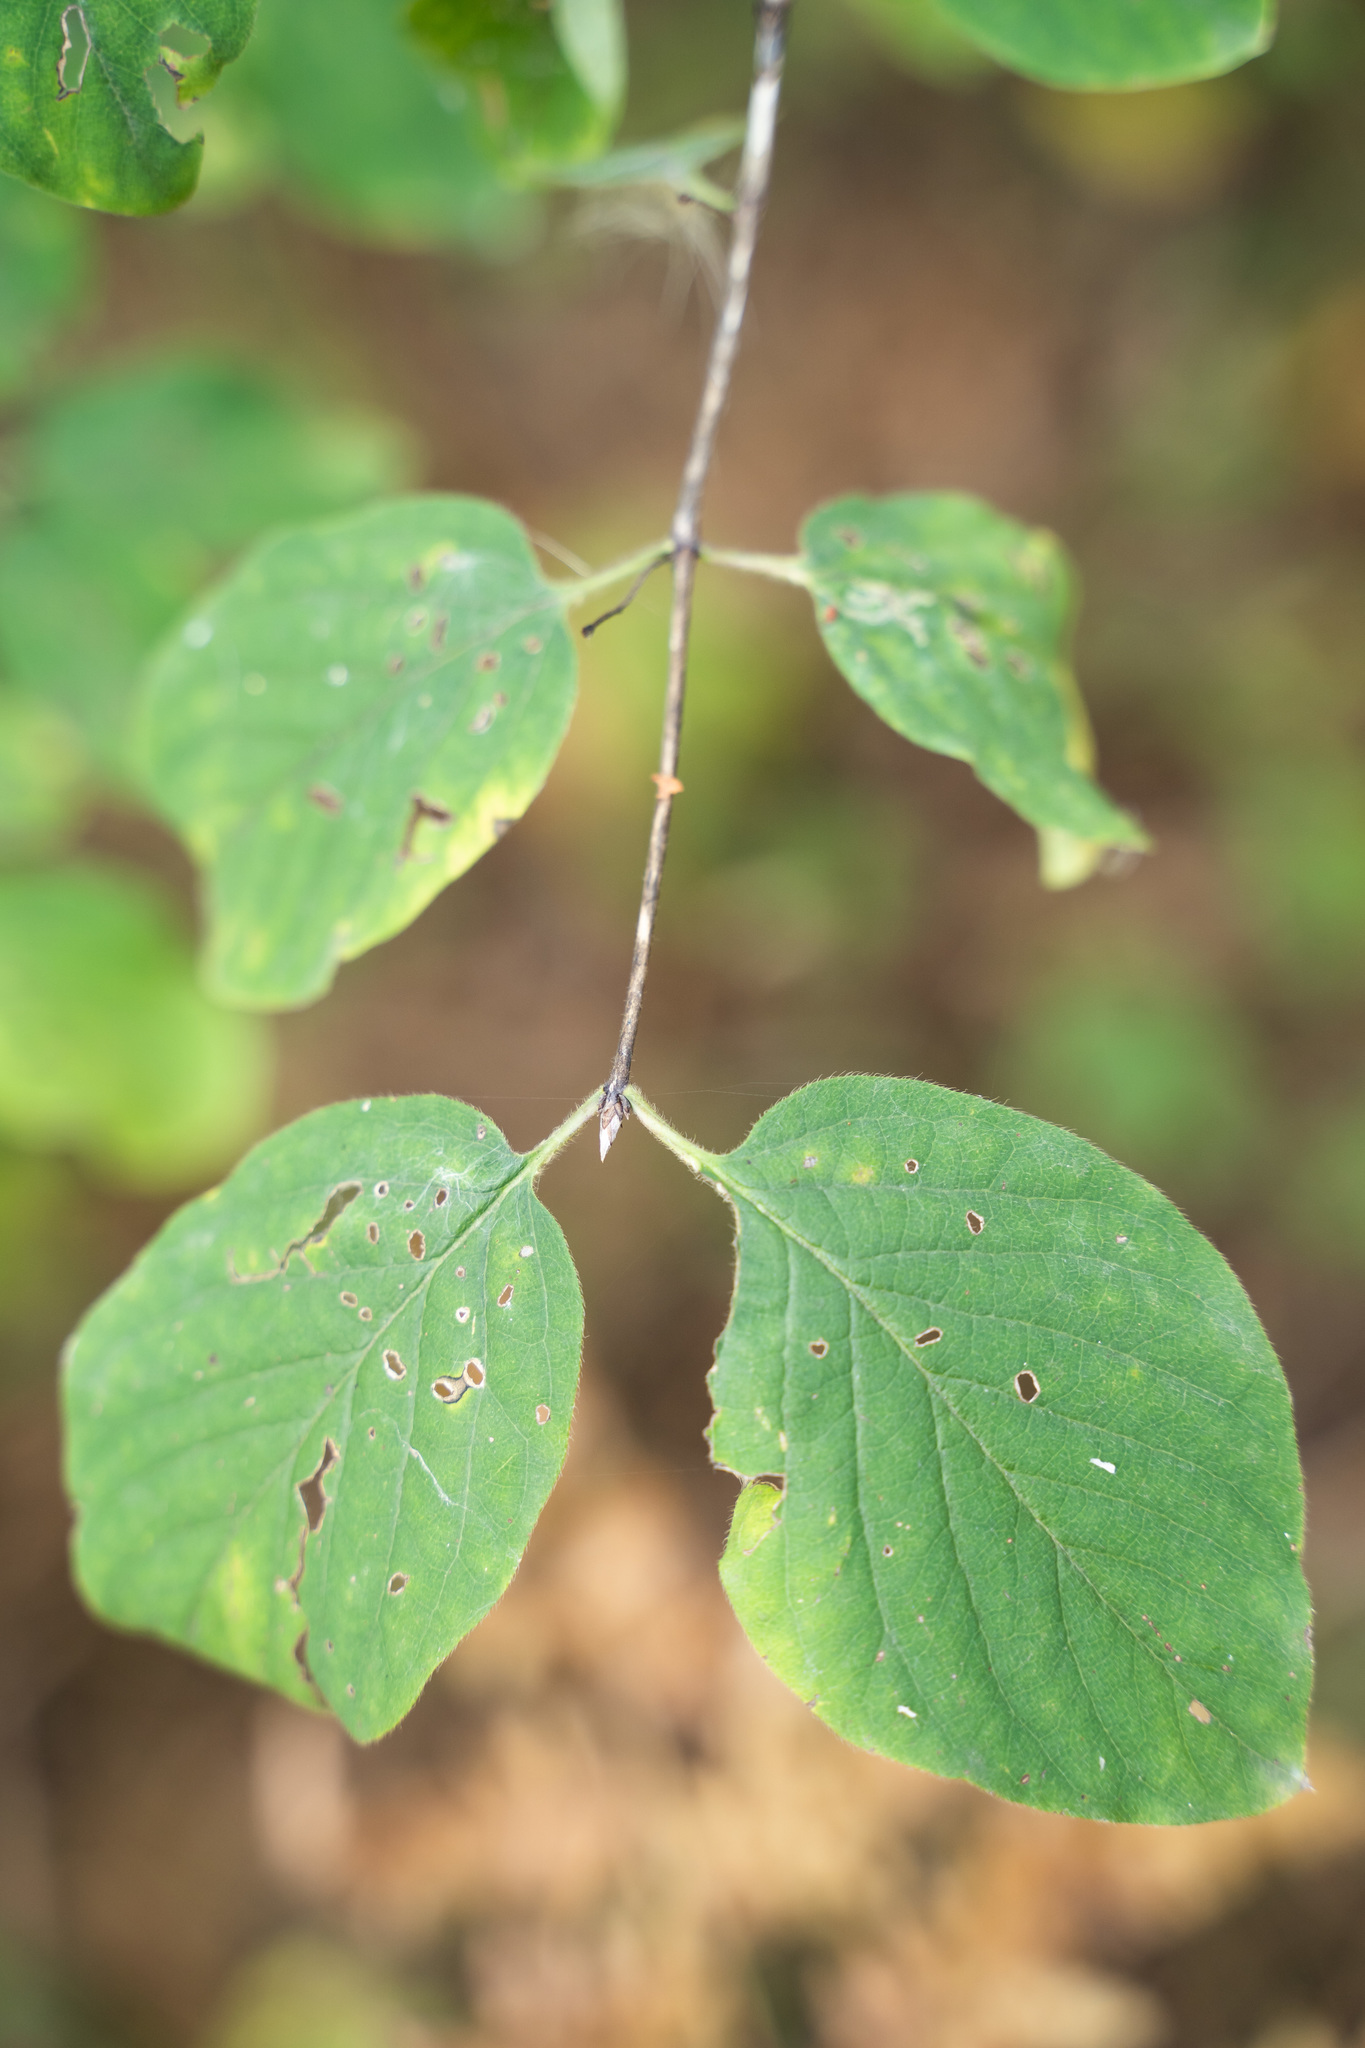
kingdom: Plantae
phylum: Tracheophyta
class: Magnoliopsida
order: Dipsacales
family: Caprifoliaceae
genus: Lonicera
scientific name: Lonicera xylosteum
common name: Fly honeysuckle
